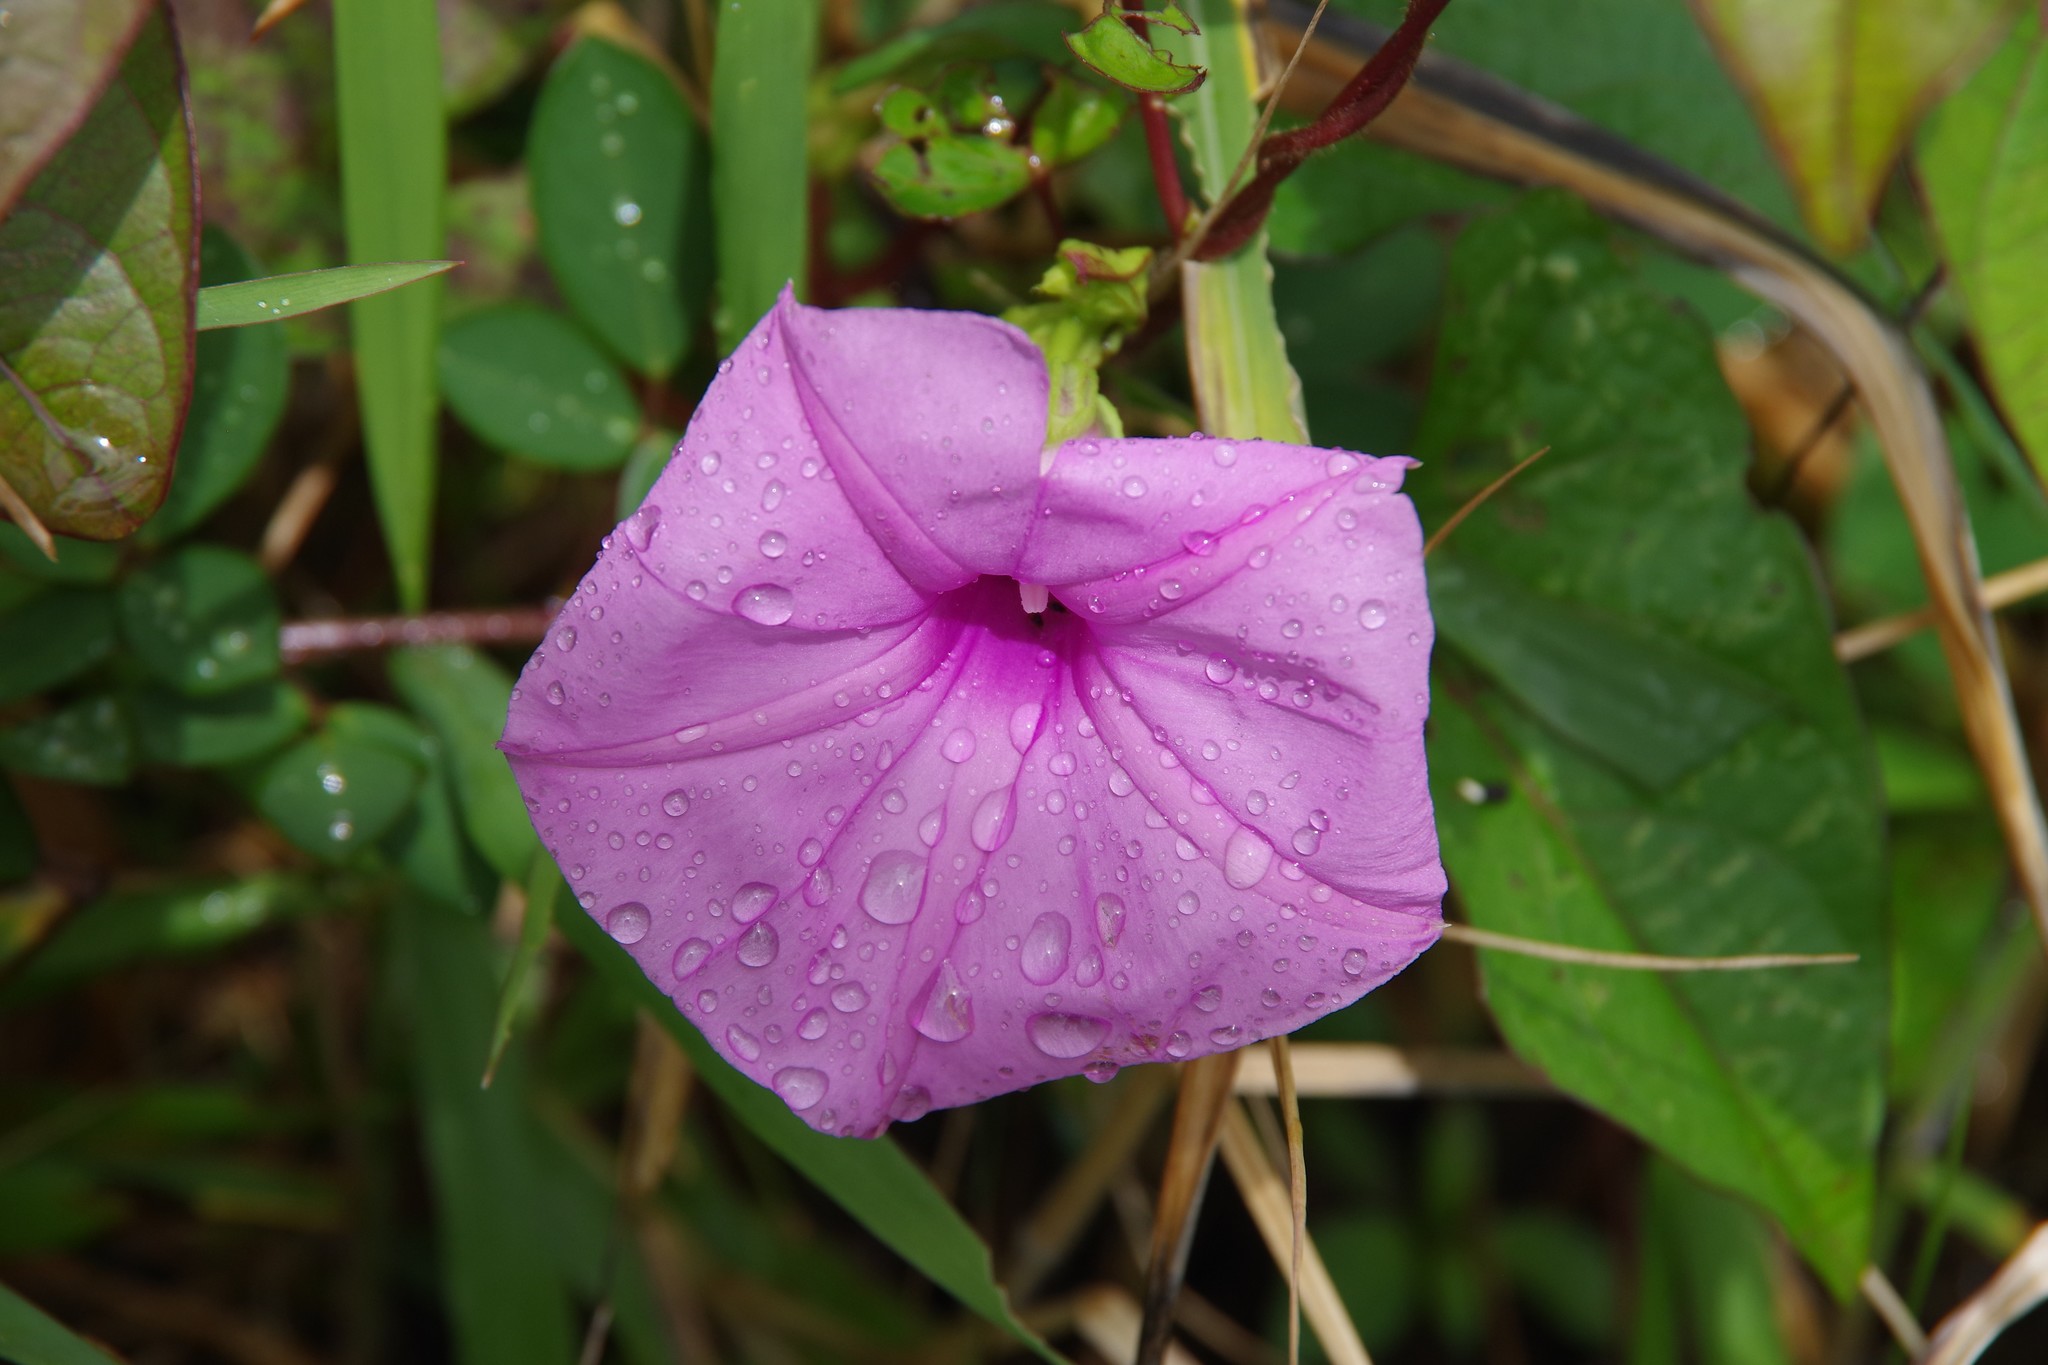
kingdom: Plantae
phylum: Tracheophyta
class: Magnoliopsida
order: Solanales
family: Convolvulaceae
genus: Ipomoea
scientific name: Ipomoea setifera
